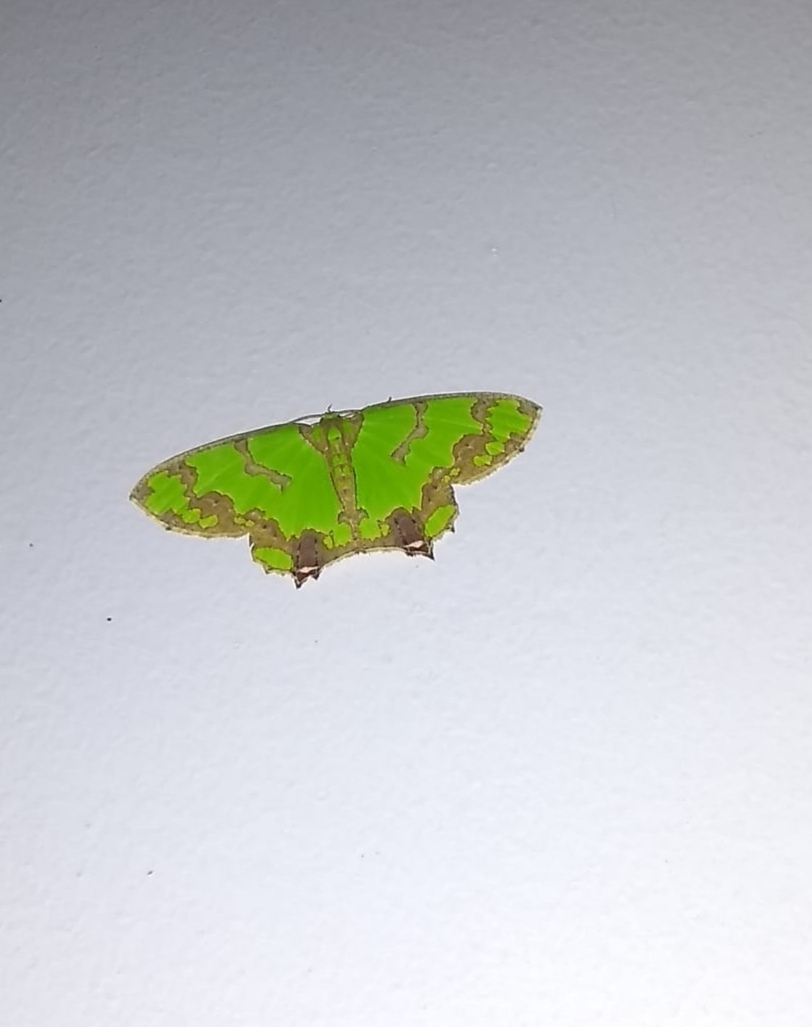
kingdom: Animalia
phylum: Arthropoda
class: Insecta
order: Lepidoptera
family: Geometridae
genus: Agathia
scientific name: Agathia hemithearia
